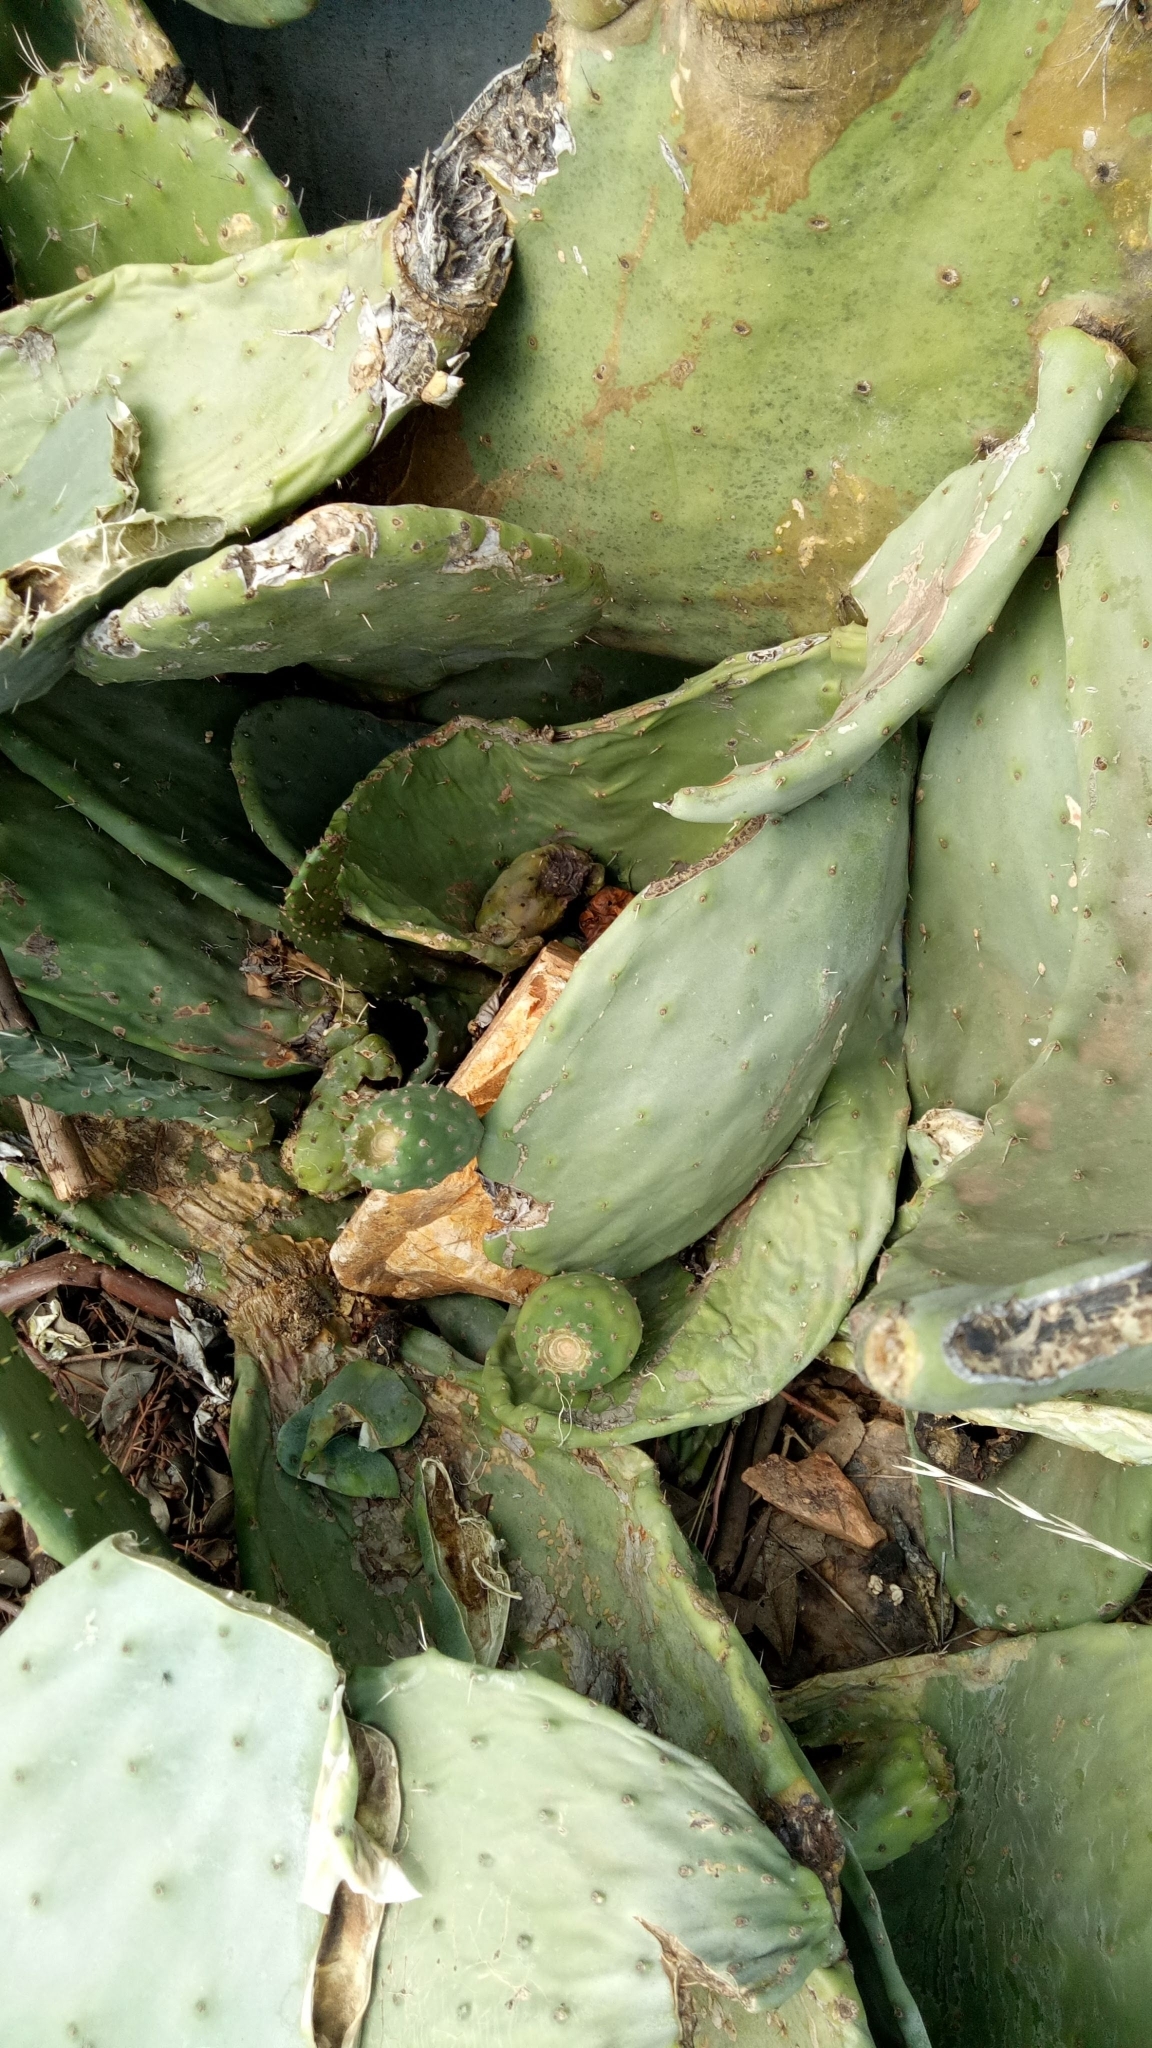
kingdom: Plantae
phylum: Tracheophyta
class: Magnoliopsida
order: Caryophyllales
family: Cactaceae
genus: Opuntia
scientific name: Opuntia ficus-indica
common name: Barbary fig
